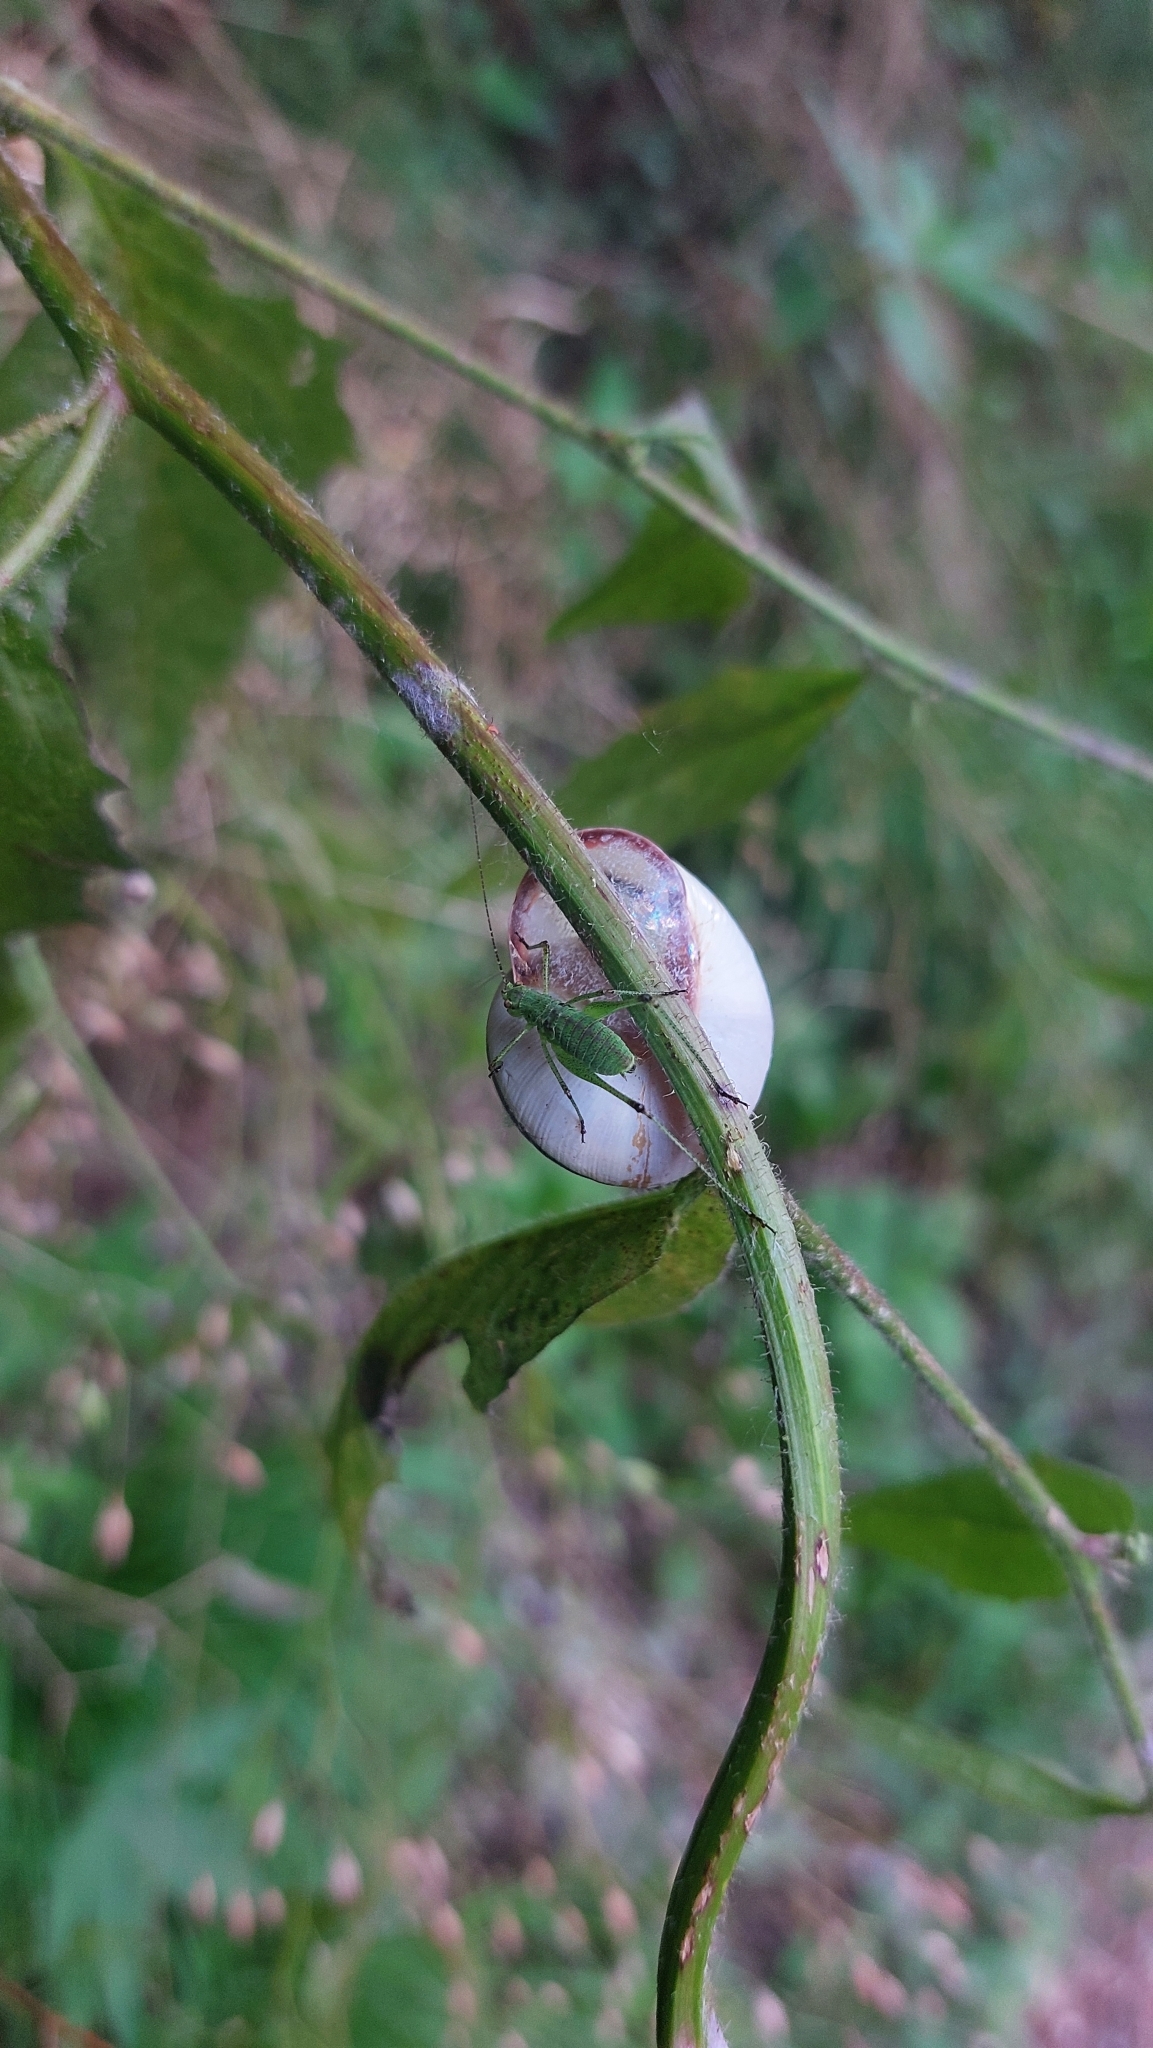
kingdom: Animalia
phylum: Arthropoda
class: Insecta
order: Orthoptera
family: Tettigoniidae
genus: Phaneroptera
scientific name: Phaneroptera nana
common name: Southern sickle bush-cricket
